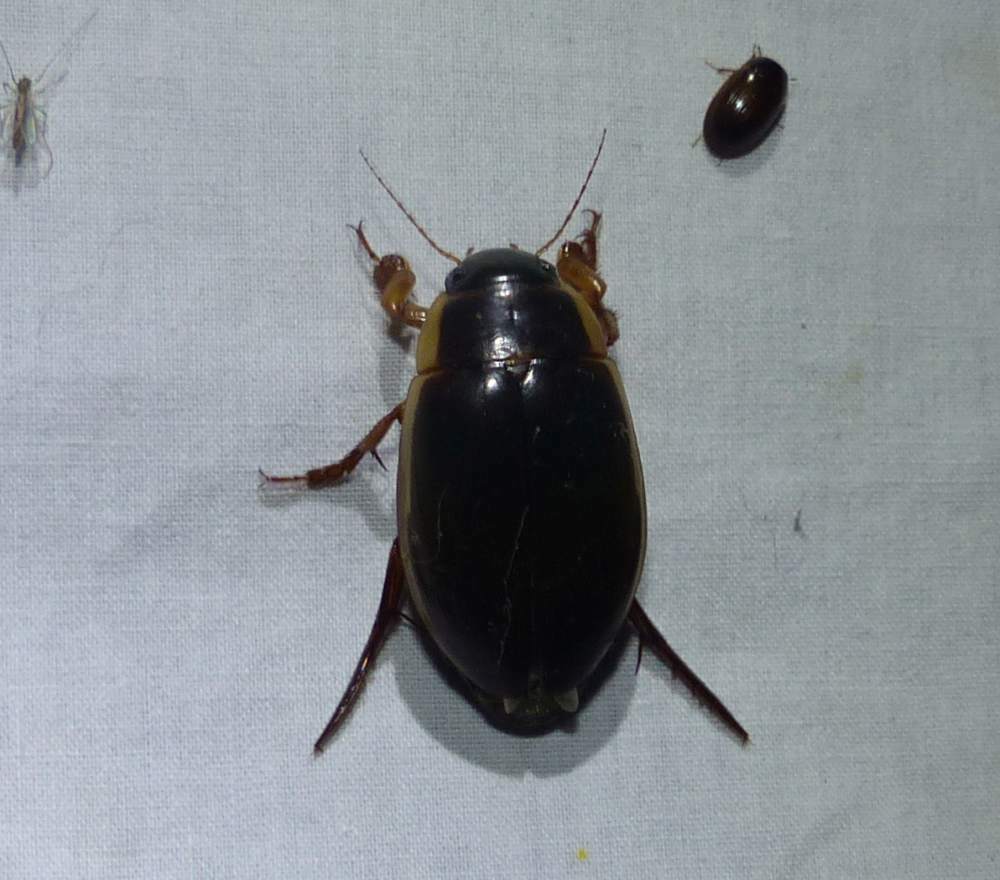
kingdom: Animalia
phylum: Arthropoda
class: Insecta
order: Coleoptera
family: Dytiscidae
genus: Dytiscus
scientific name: Dytiscus
